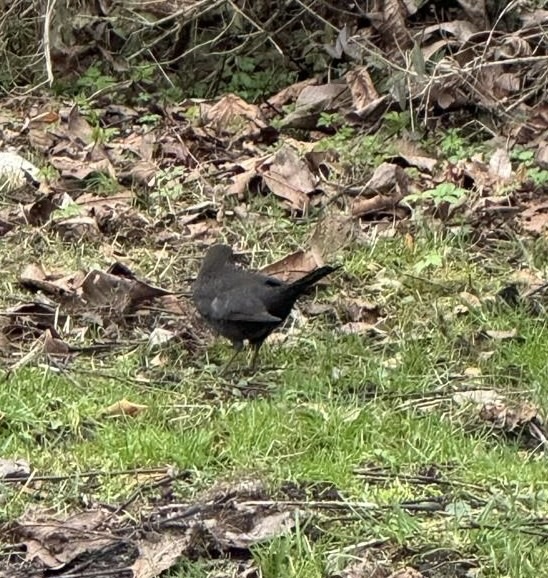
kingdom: Animalia
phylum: Chordata
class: Aves
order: Passeriformes
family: Turdidae
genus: Turdus
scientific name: Turdus merula
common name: Common blackbird
